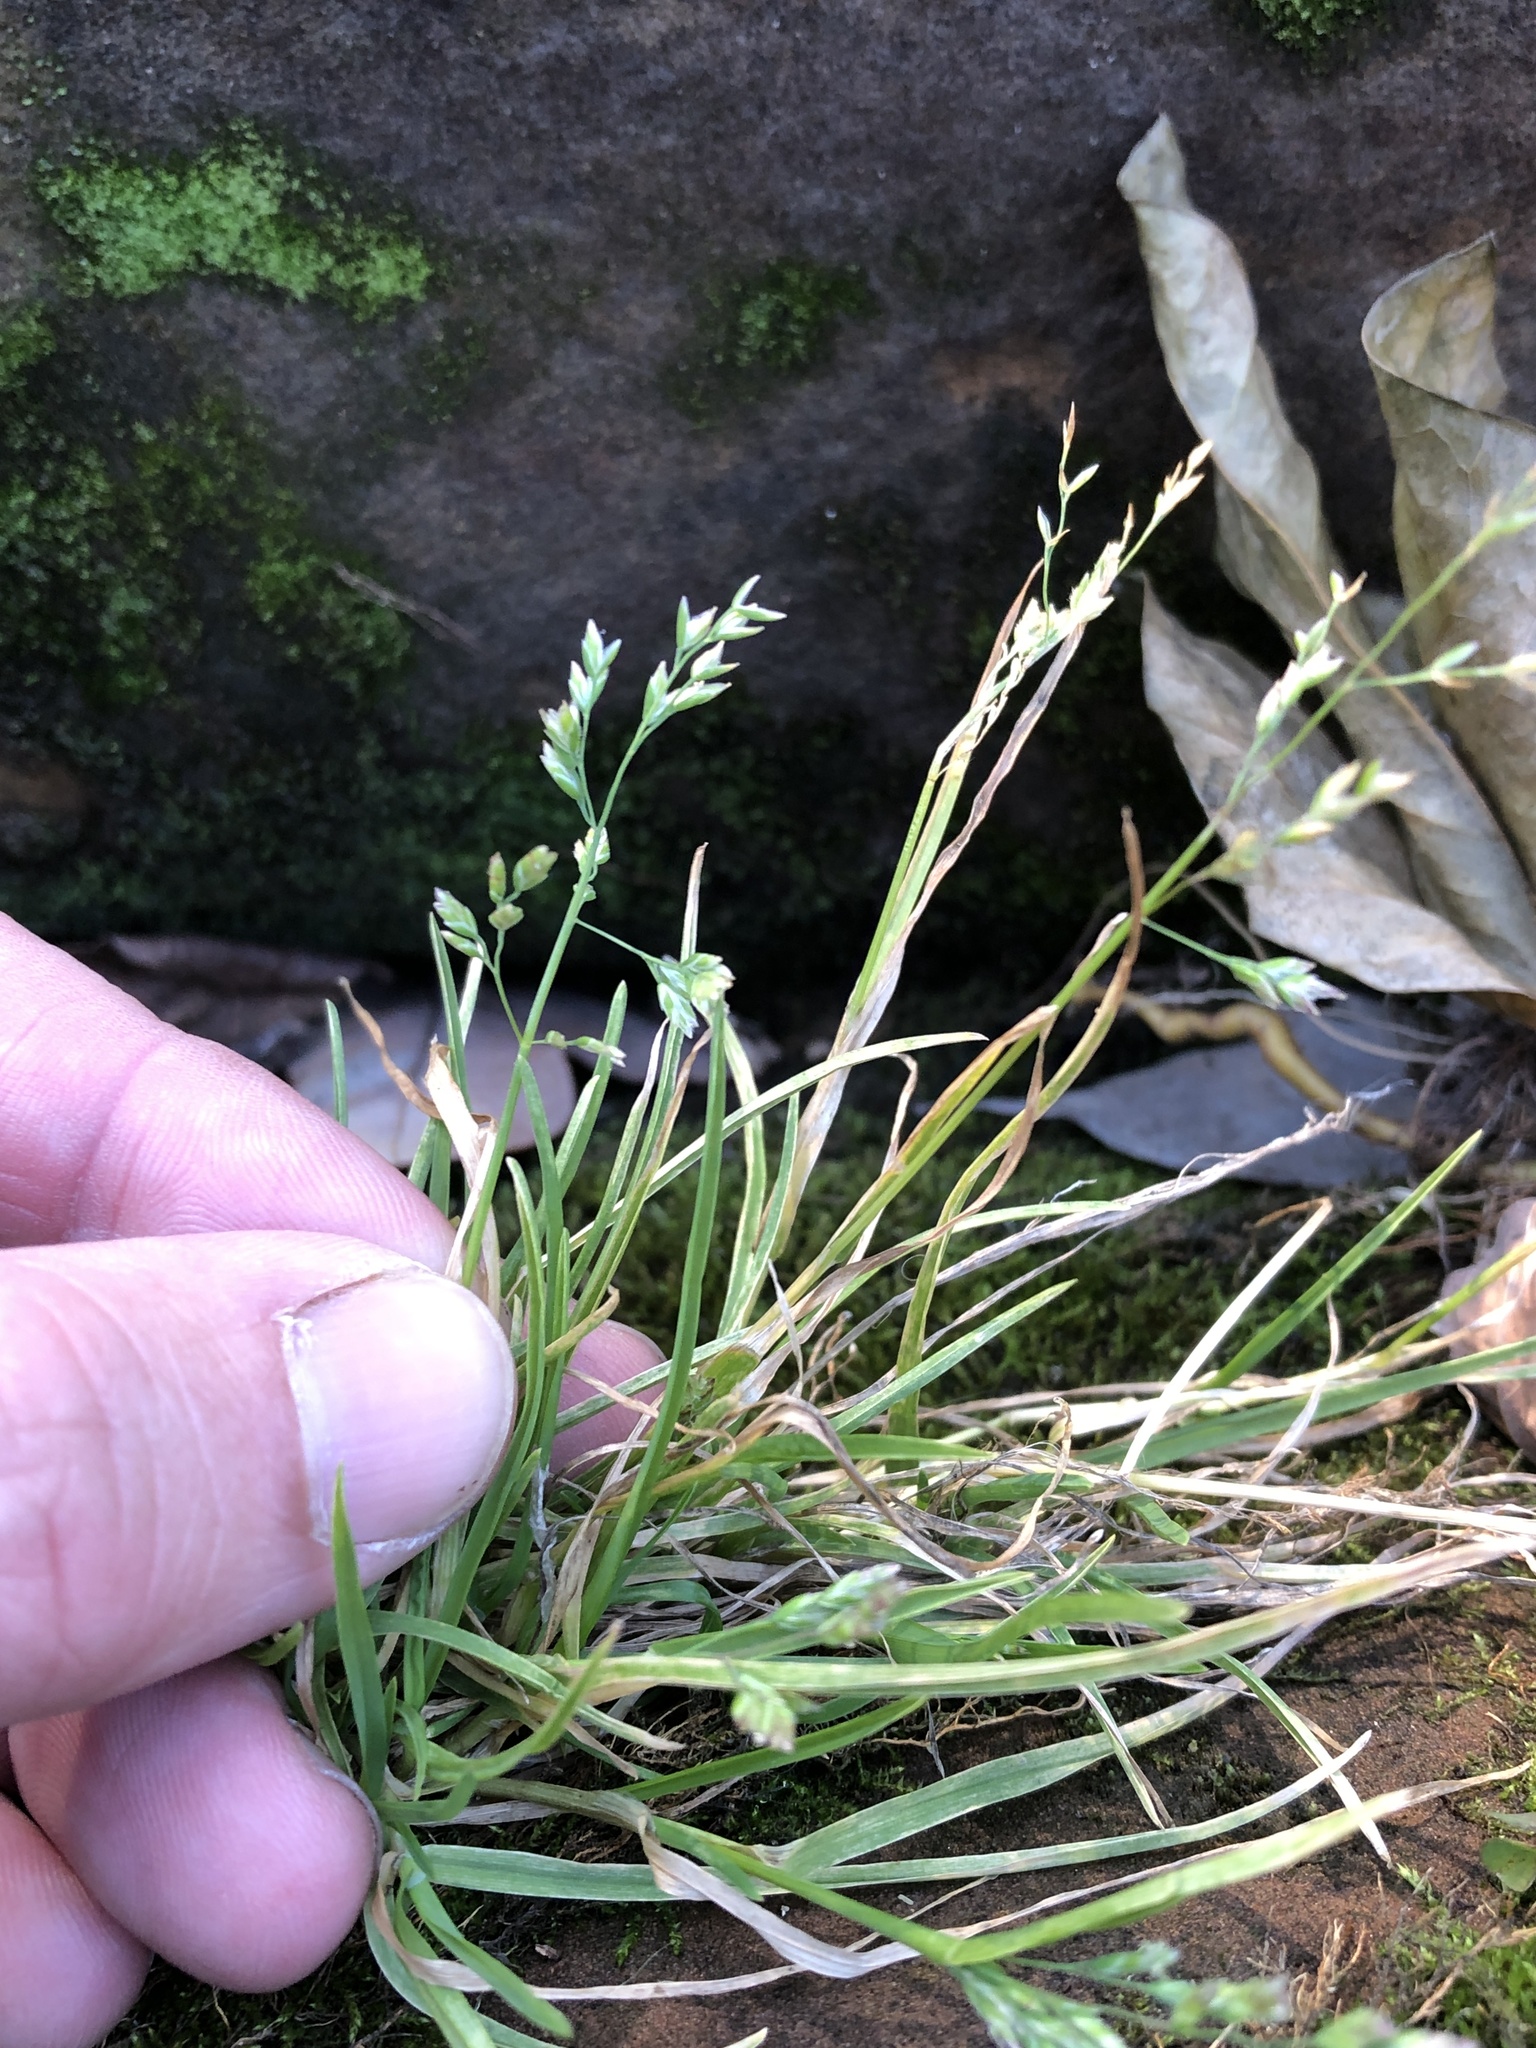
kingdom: Plantae
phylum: Tracheophyta
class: Liliopsida
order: Poales
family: Poaceae
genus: Poa
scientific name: Poa annua
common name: Annual bluegrass
